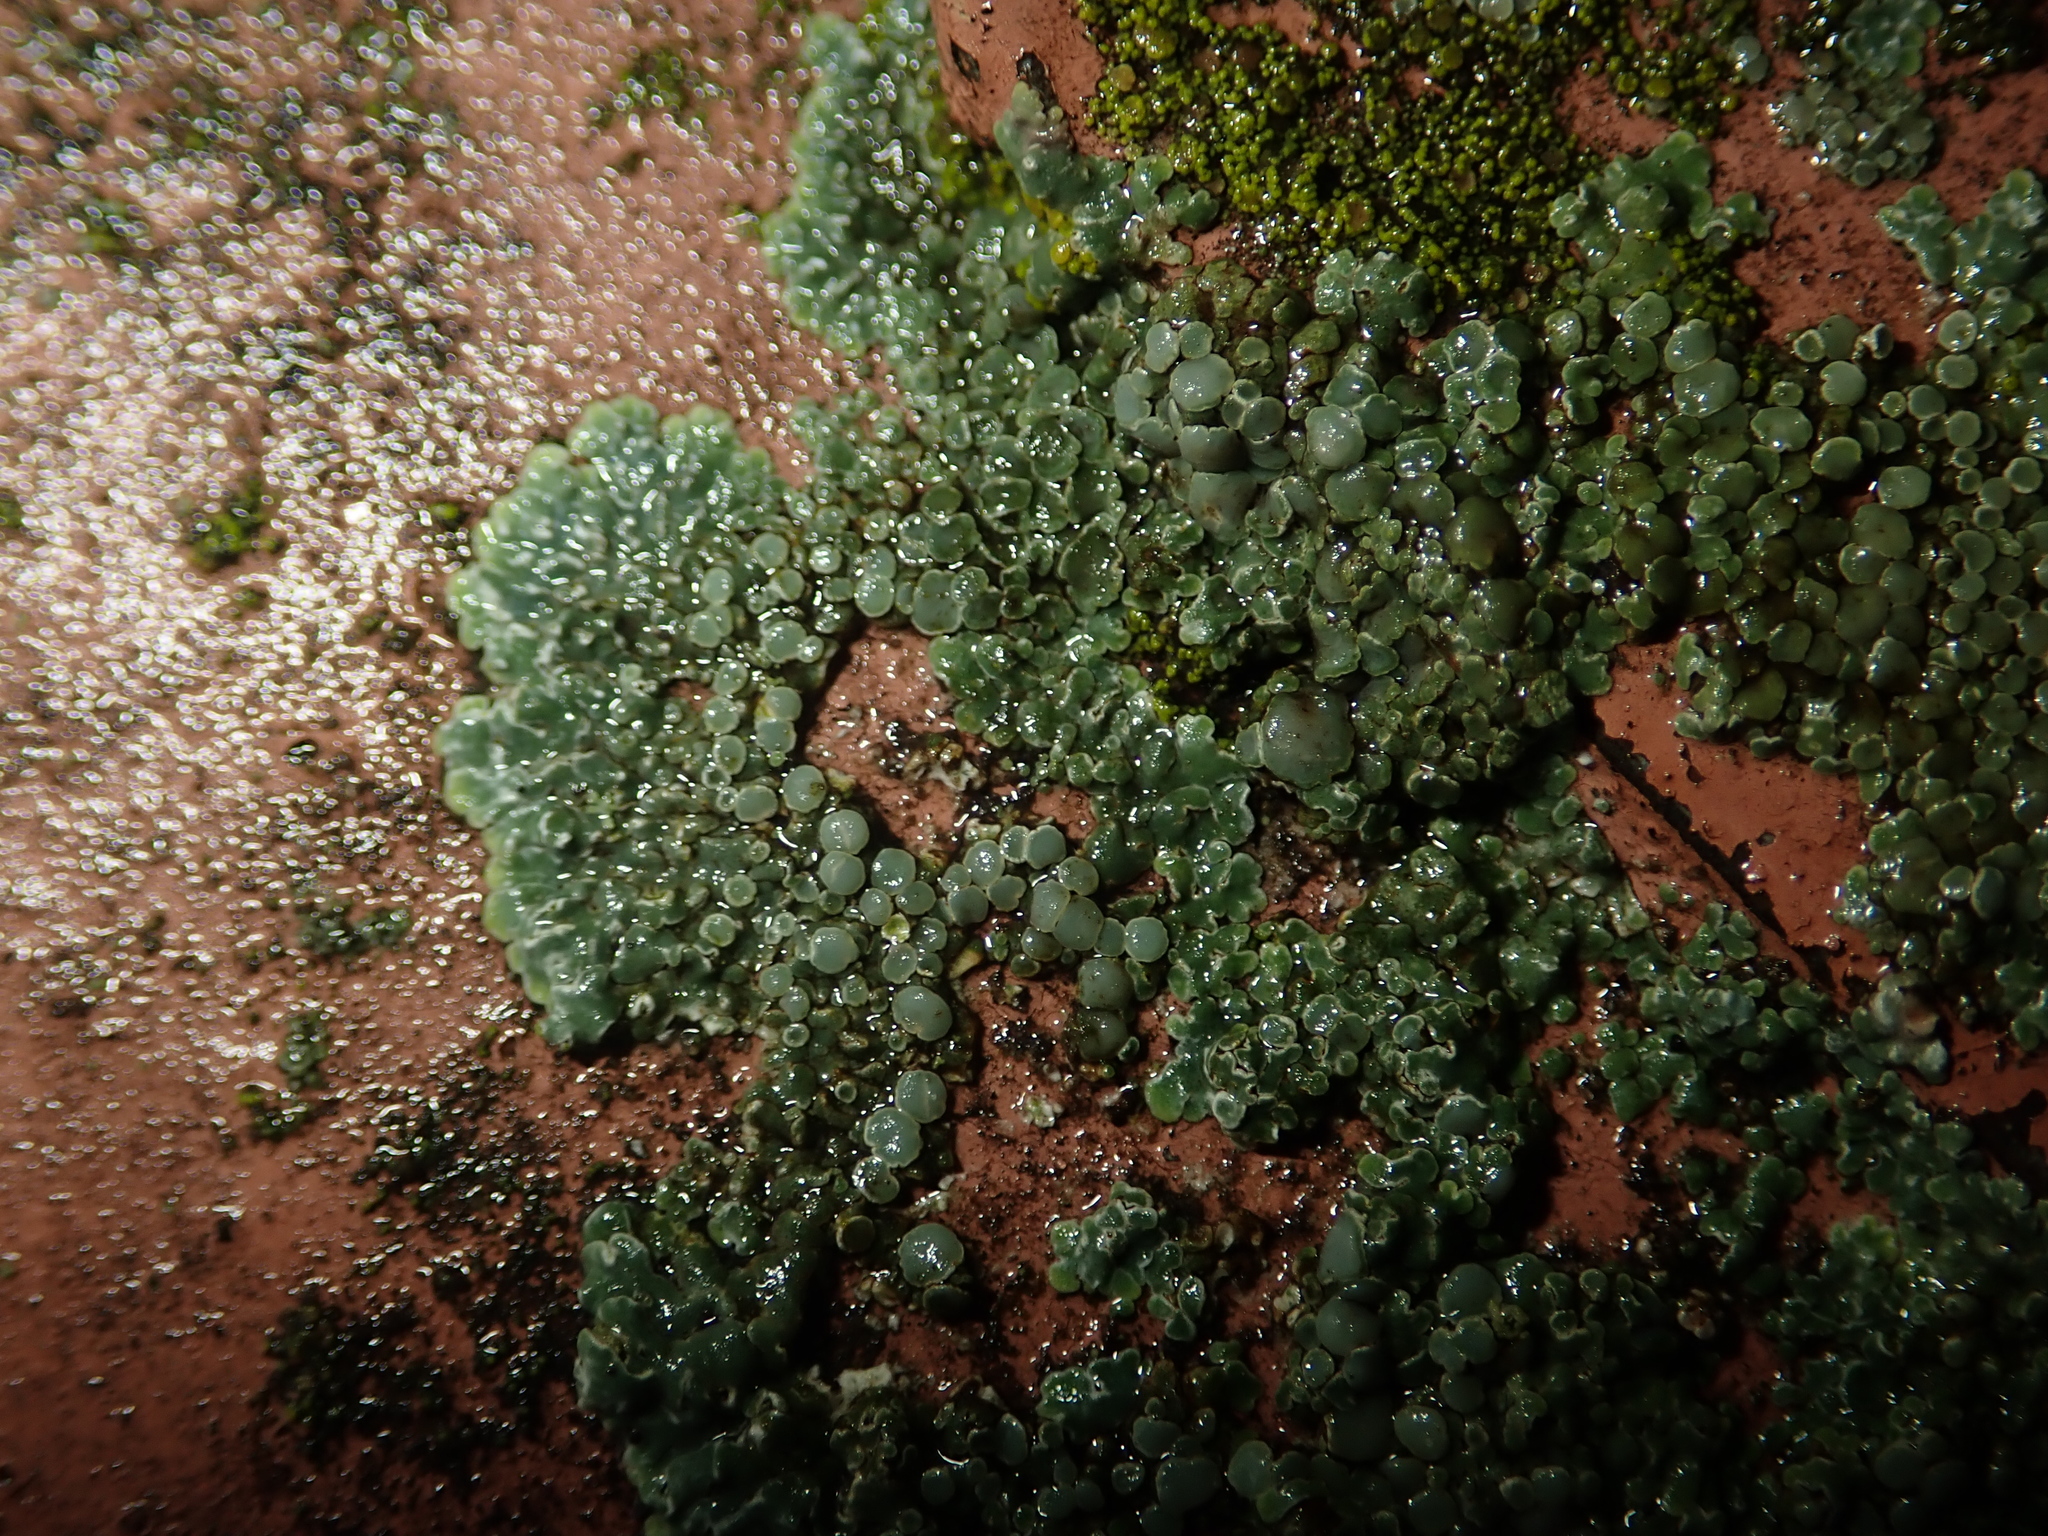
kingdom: Fungi
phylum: Ascomycota
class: Lecanoromycetes
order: Lecanorales
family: Lecanoraceae
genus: Protoparmeliopsis
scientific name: Protoparmeliopsis muralis
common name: Stonewall rim lichen
